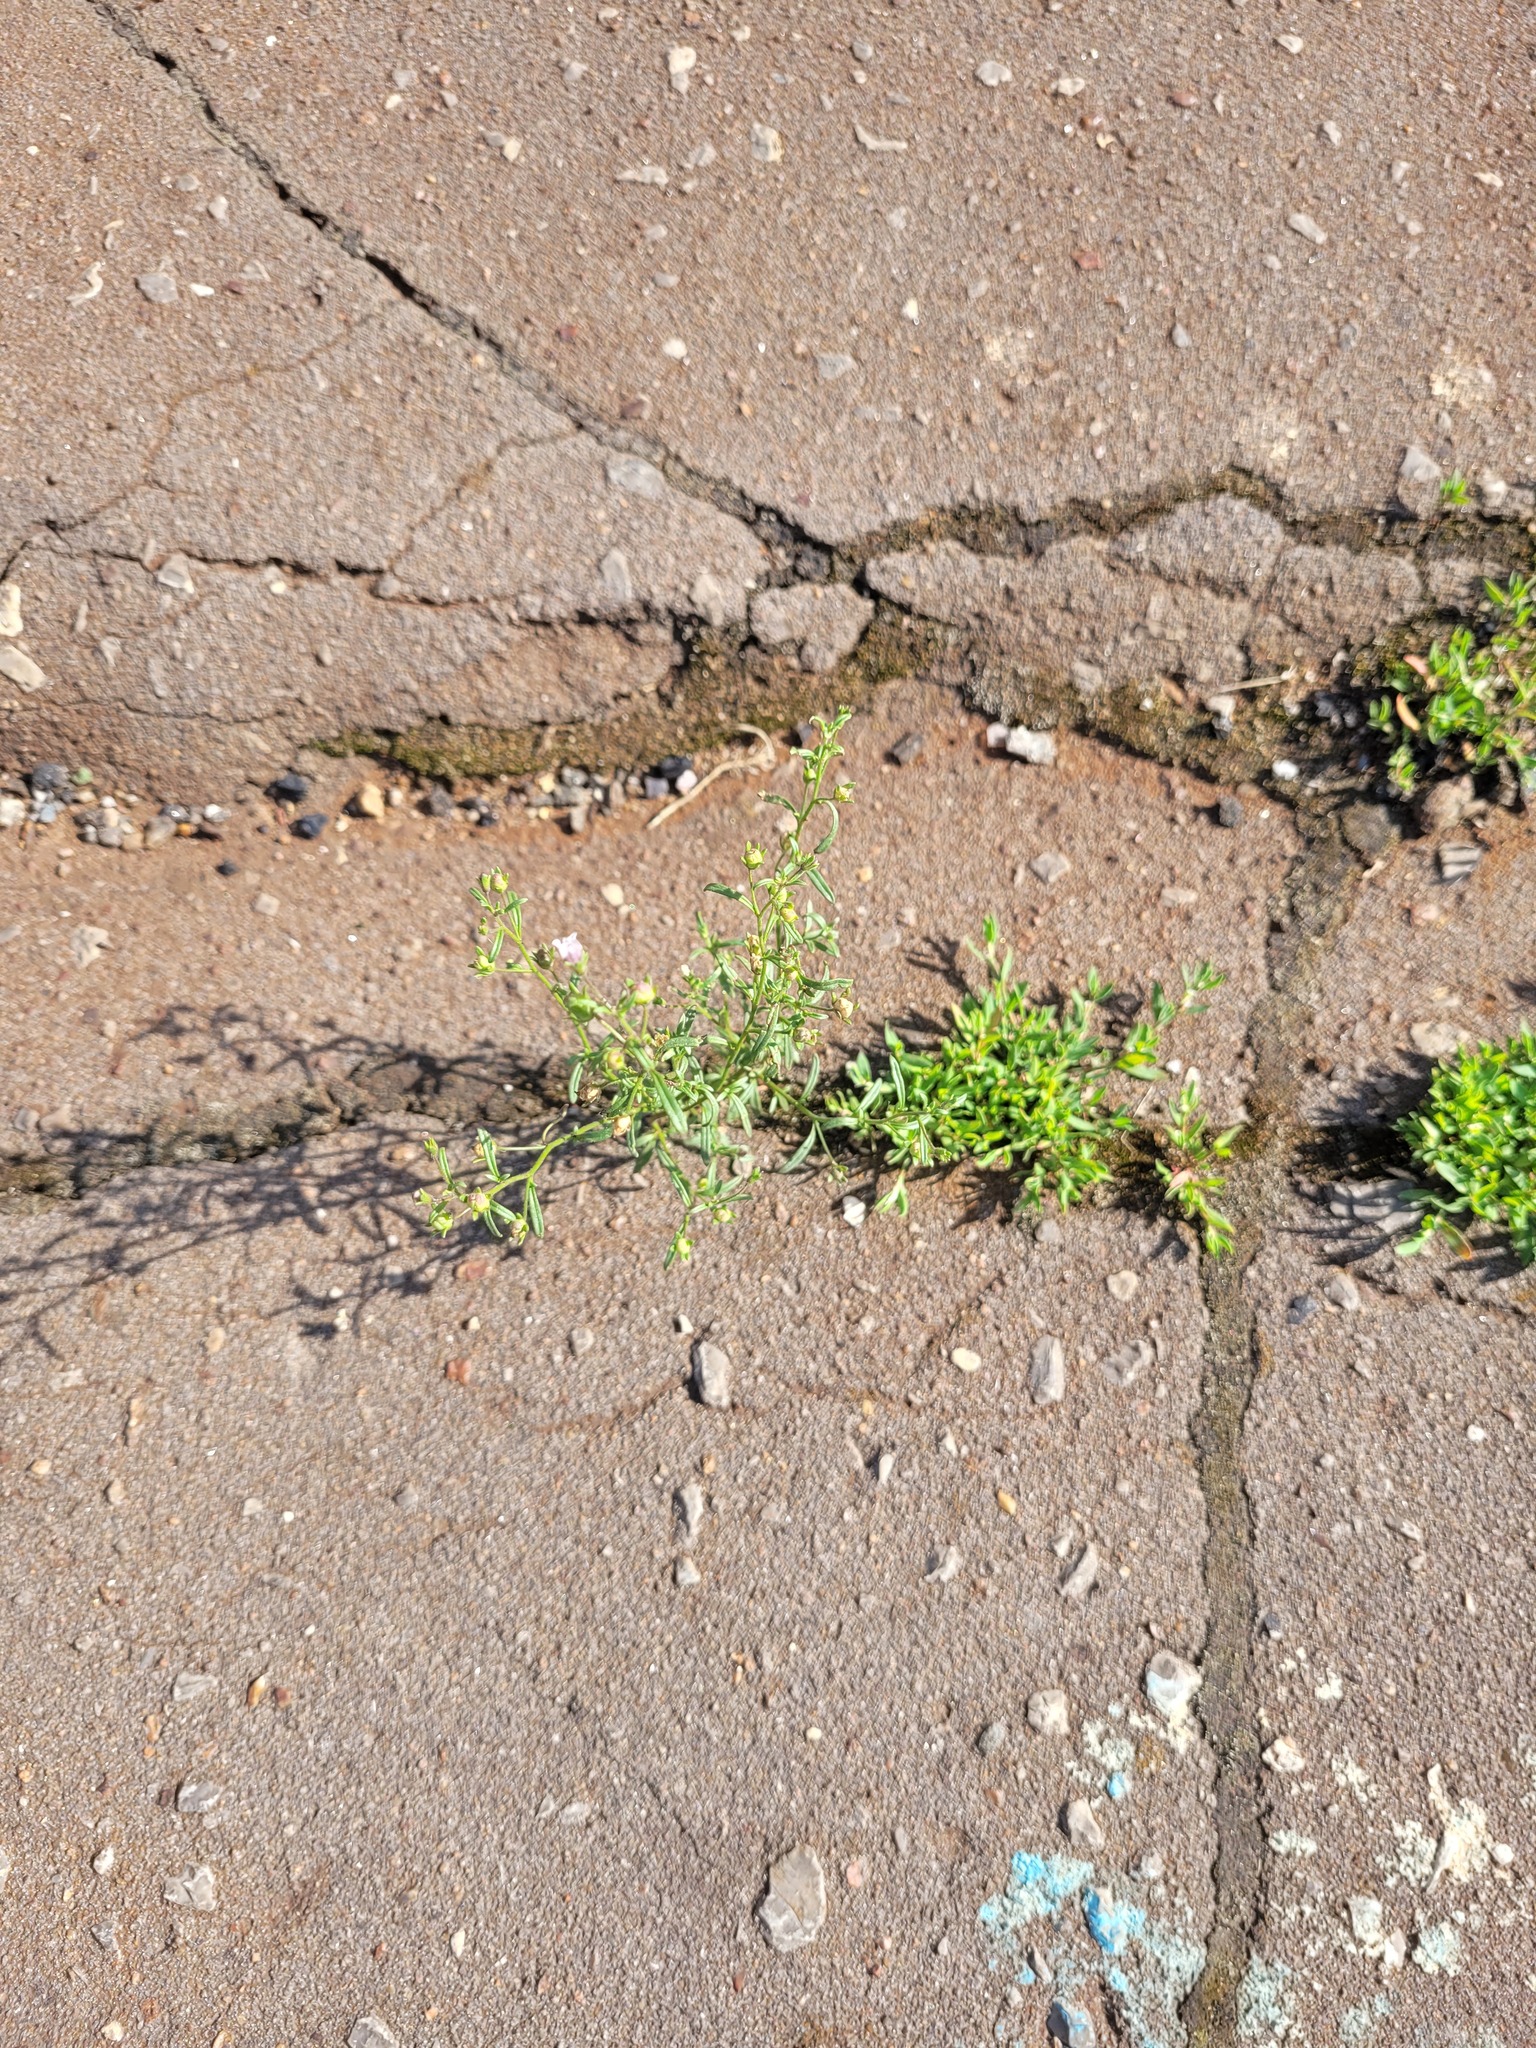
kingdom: Plantae
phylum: Tracheophyta
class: Magnoliopsida
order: Lamiales
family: Plantaginaceae
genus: Chaenorhinum
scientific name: Chaenorhinum minus
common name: Dwarf snapdragon
